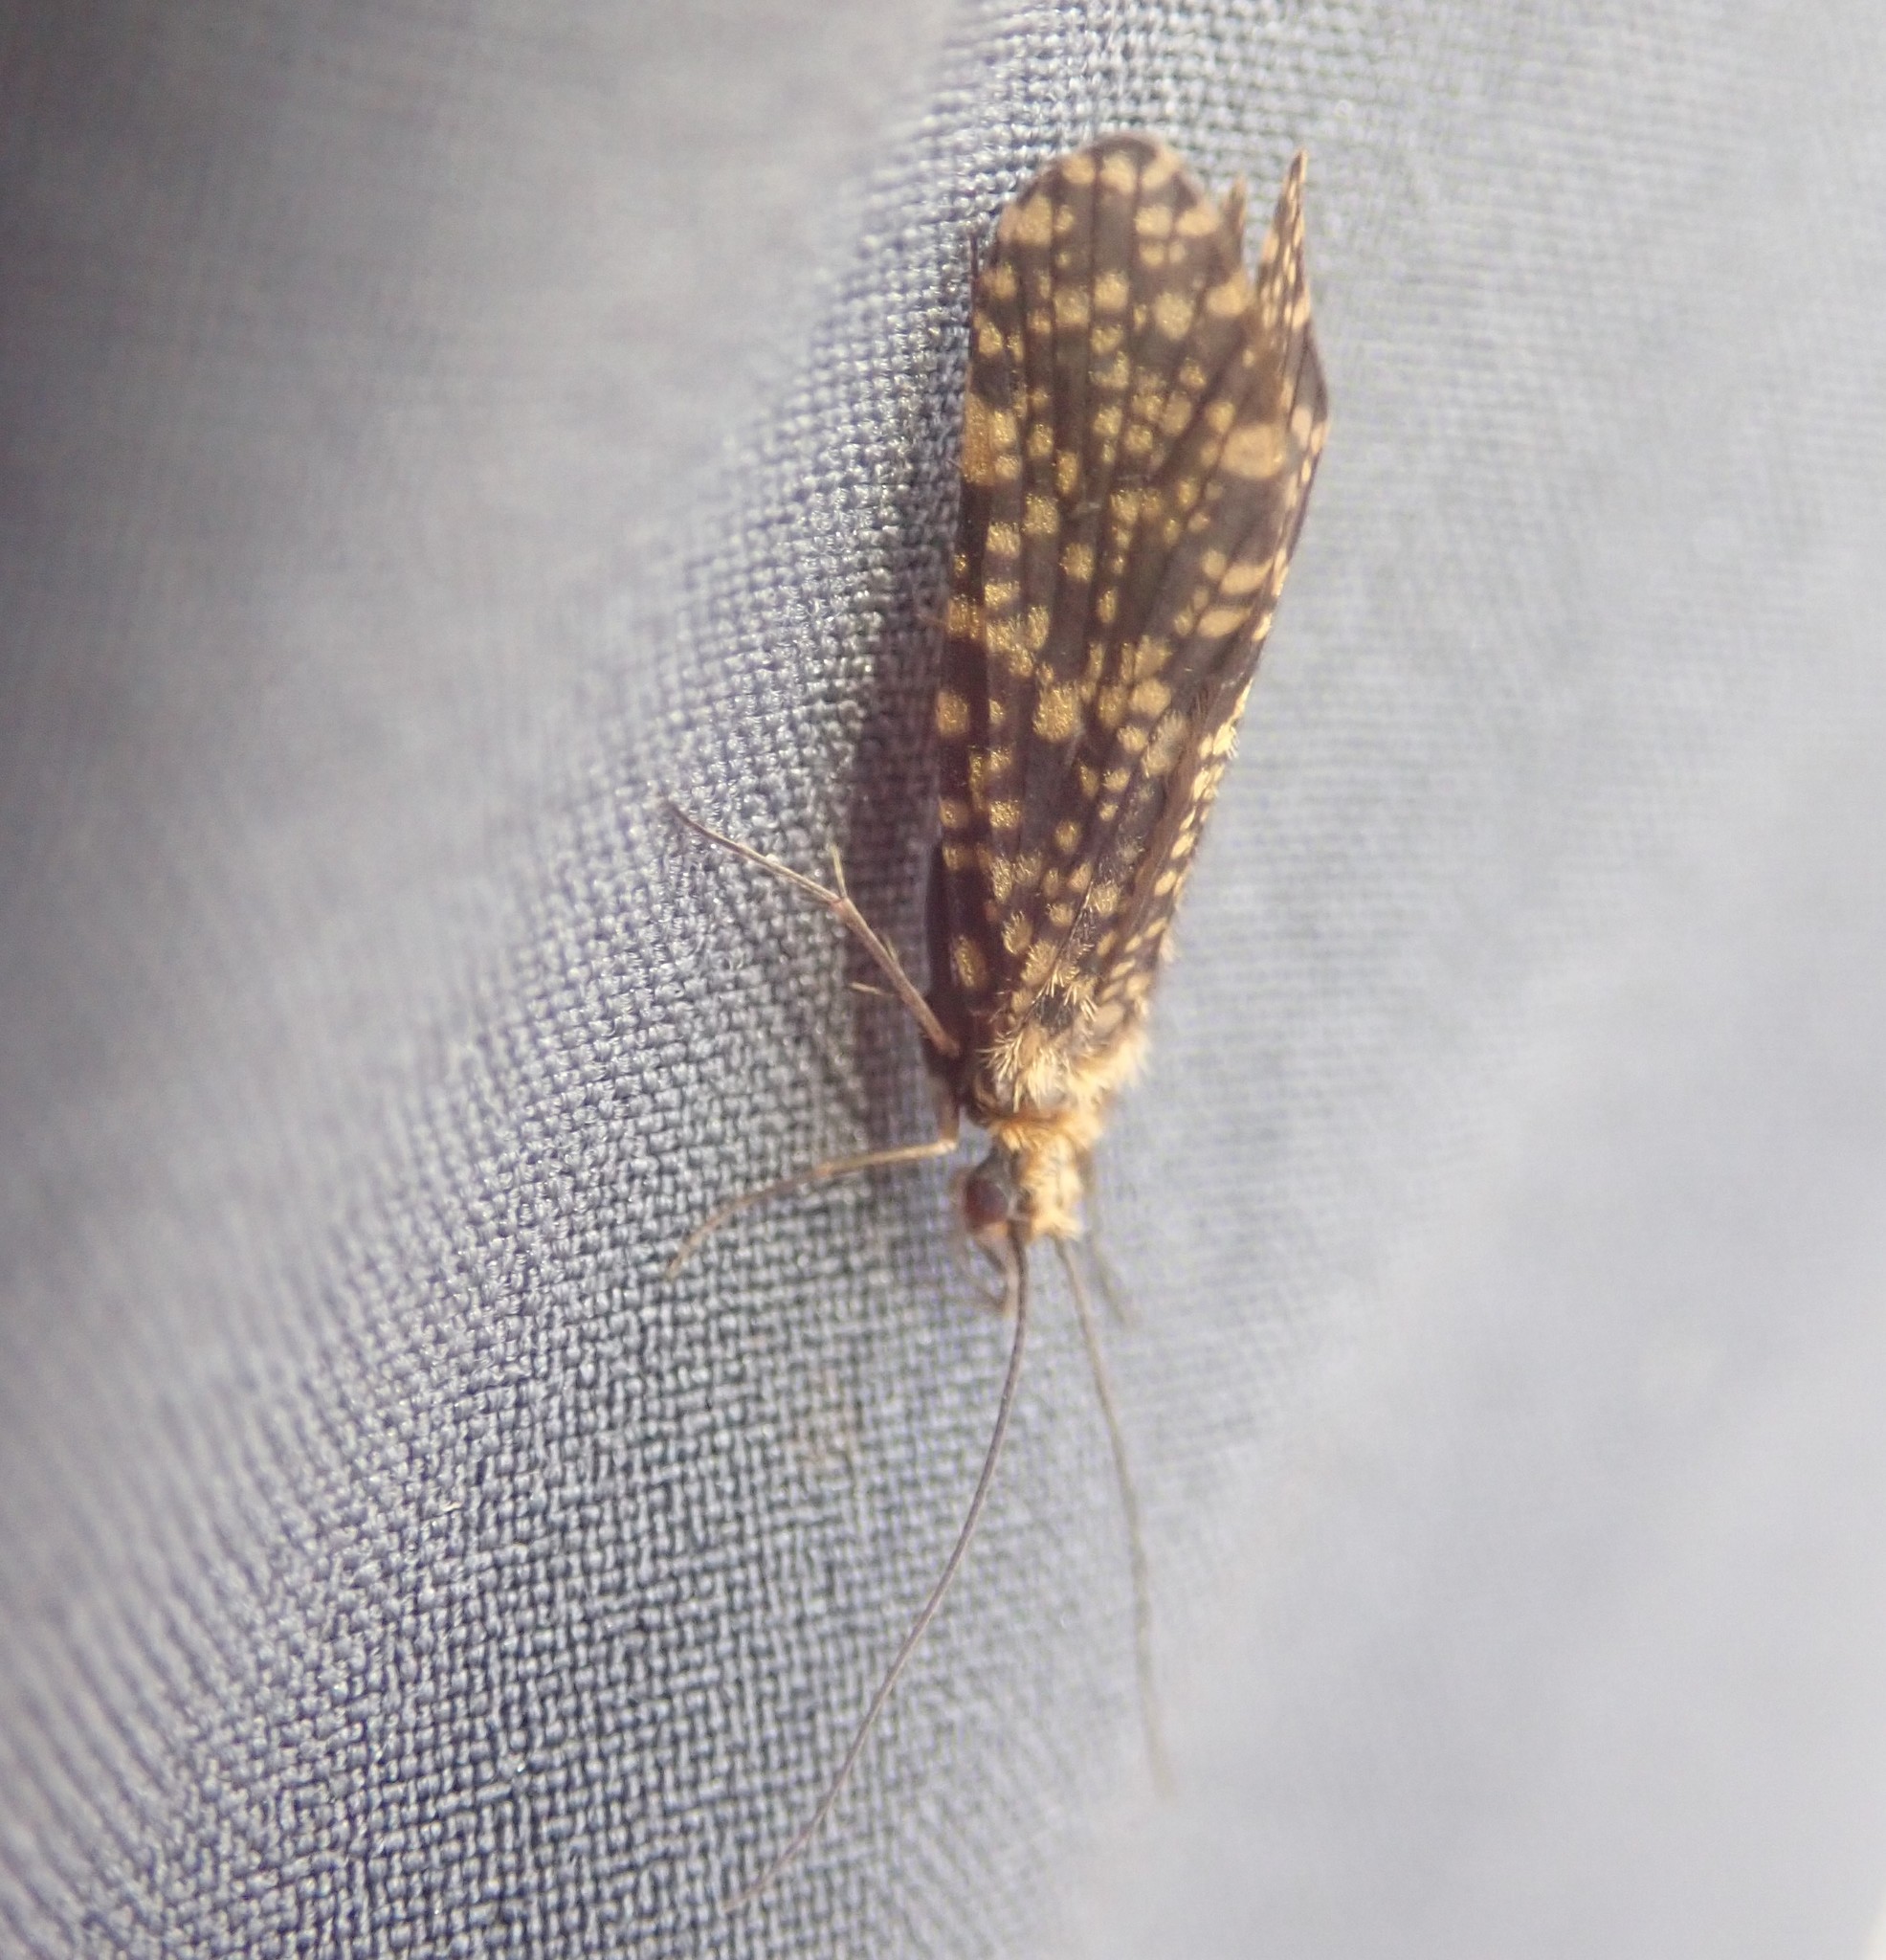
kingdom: Animalia
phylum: Arthropoda
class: Insecta
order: Trichoptera
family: Philopotamidae
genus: Philopotamus
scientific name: Philopotamus montanus
